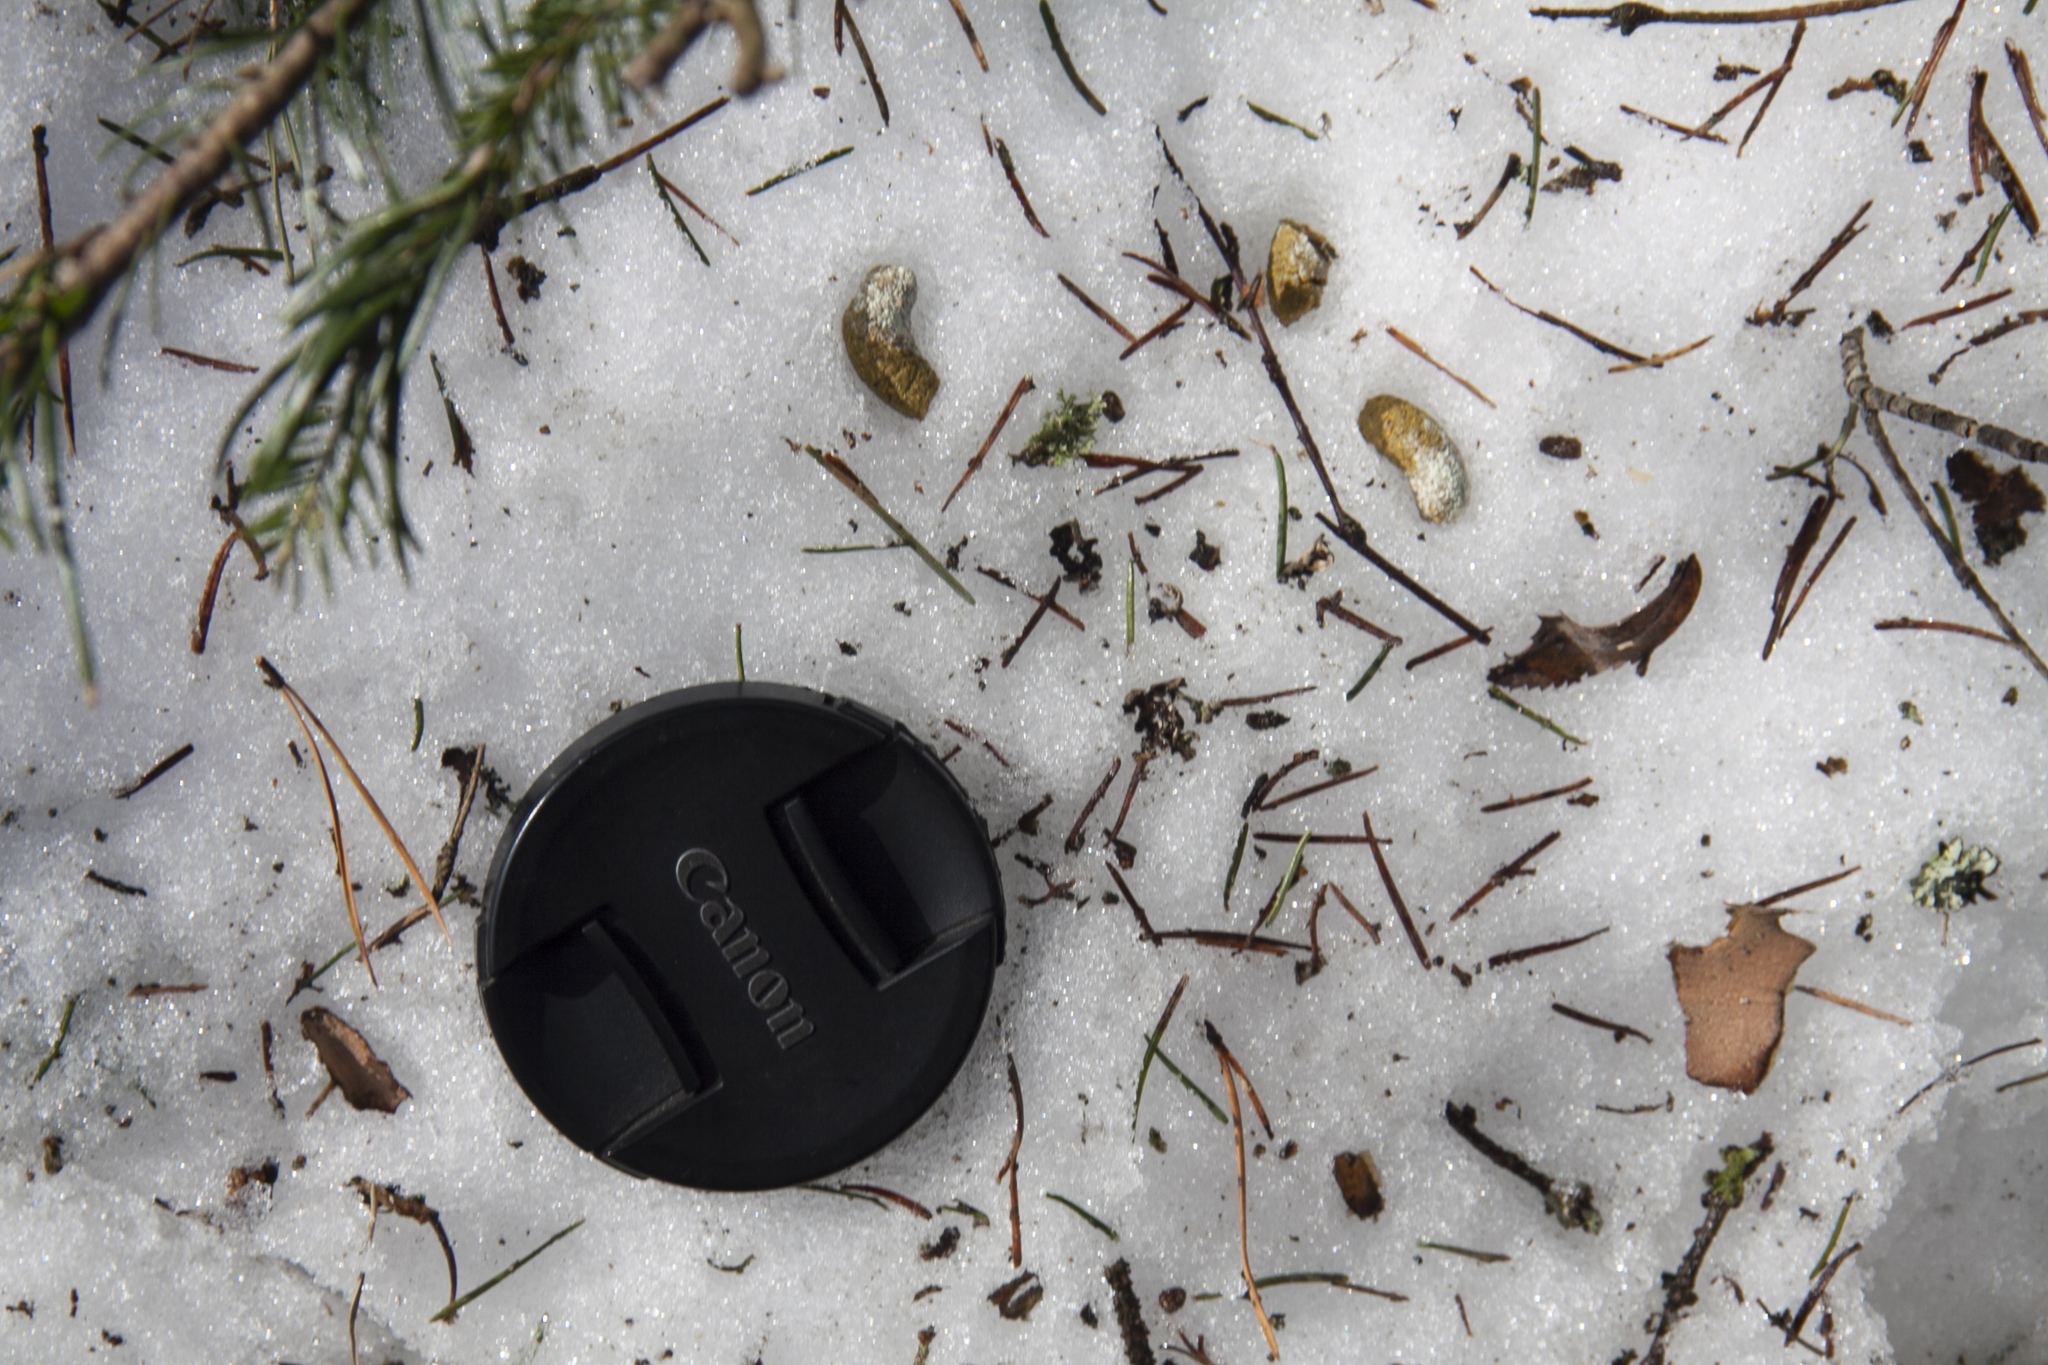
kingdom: Animalia
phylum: Chordata
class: Aves
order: Galliformes
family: Phasianidae
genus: Tetrastes
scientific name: Tetrastes bonasia
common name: Hazel grouse
